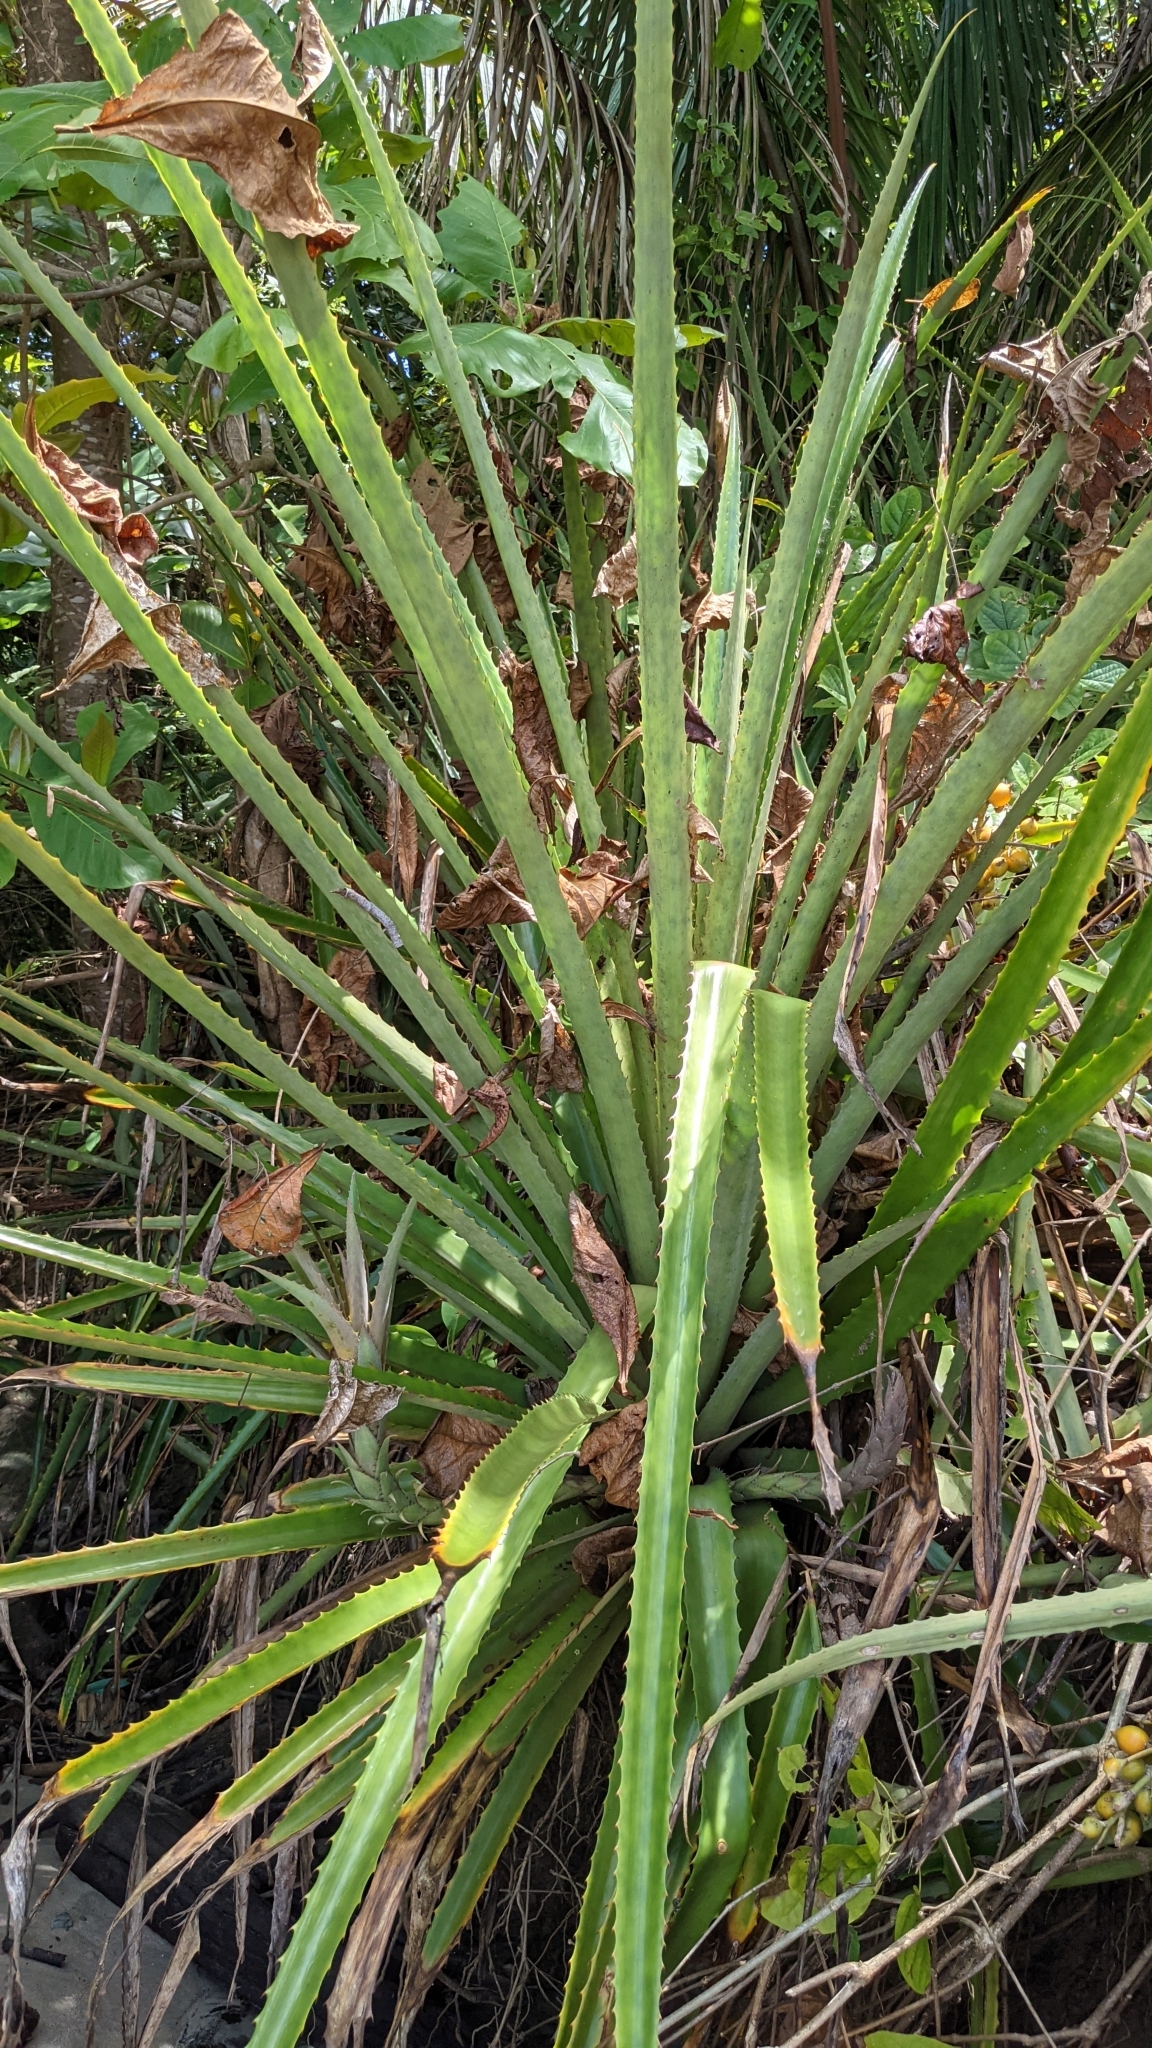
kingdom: Plantae
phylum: Tracheophyta
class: Liliopsida
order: Poales
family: Bromeliaceae
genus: Bromelia
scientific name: Bromelia pinguin
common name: Pinguin
